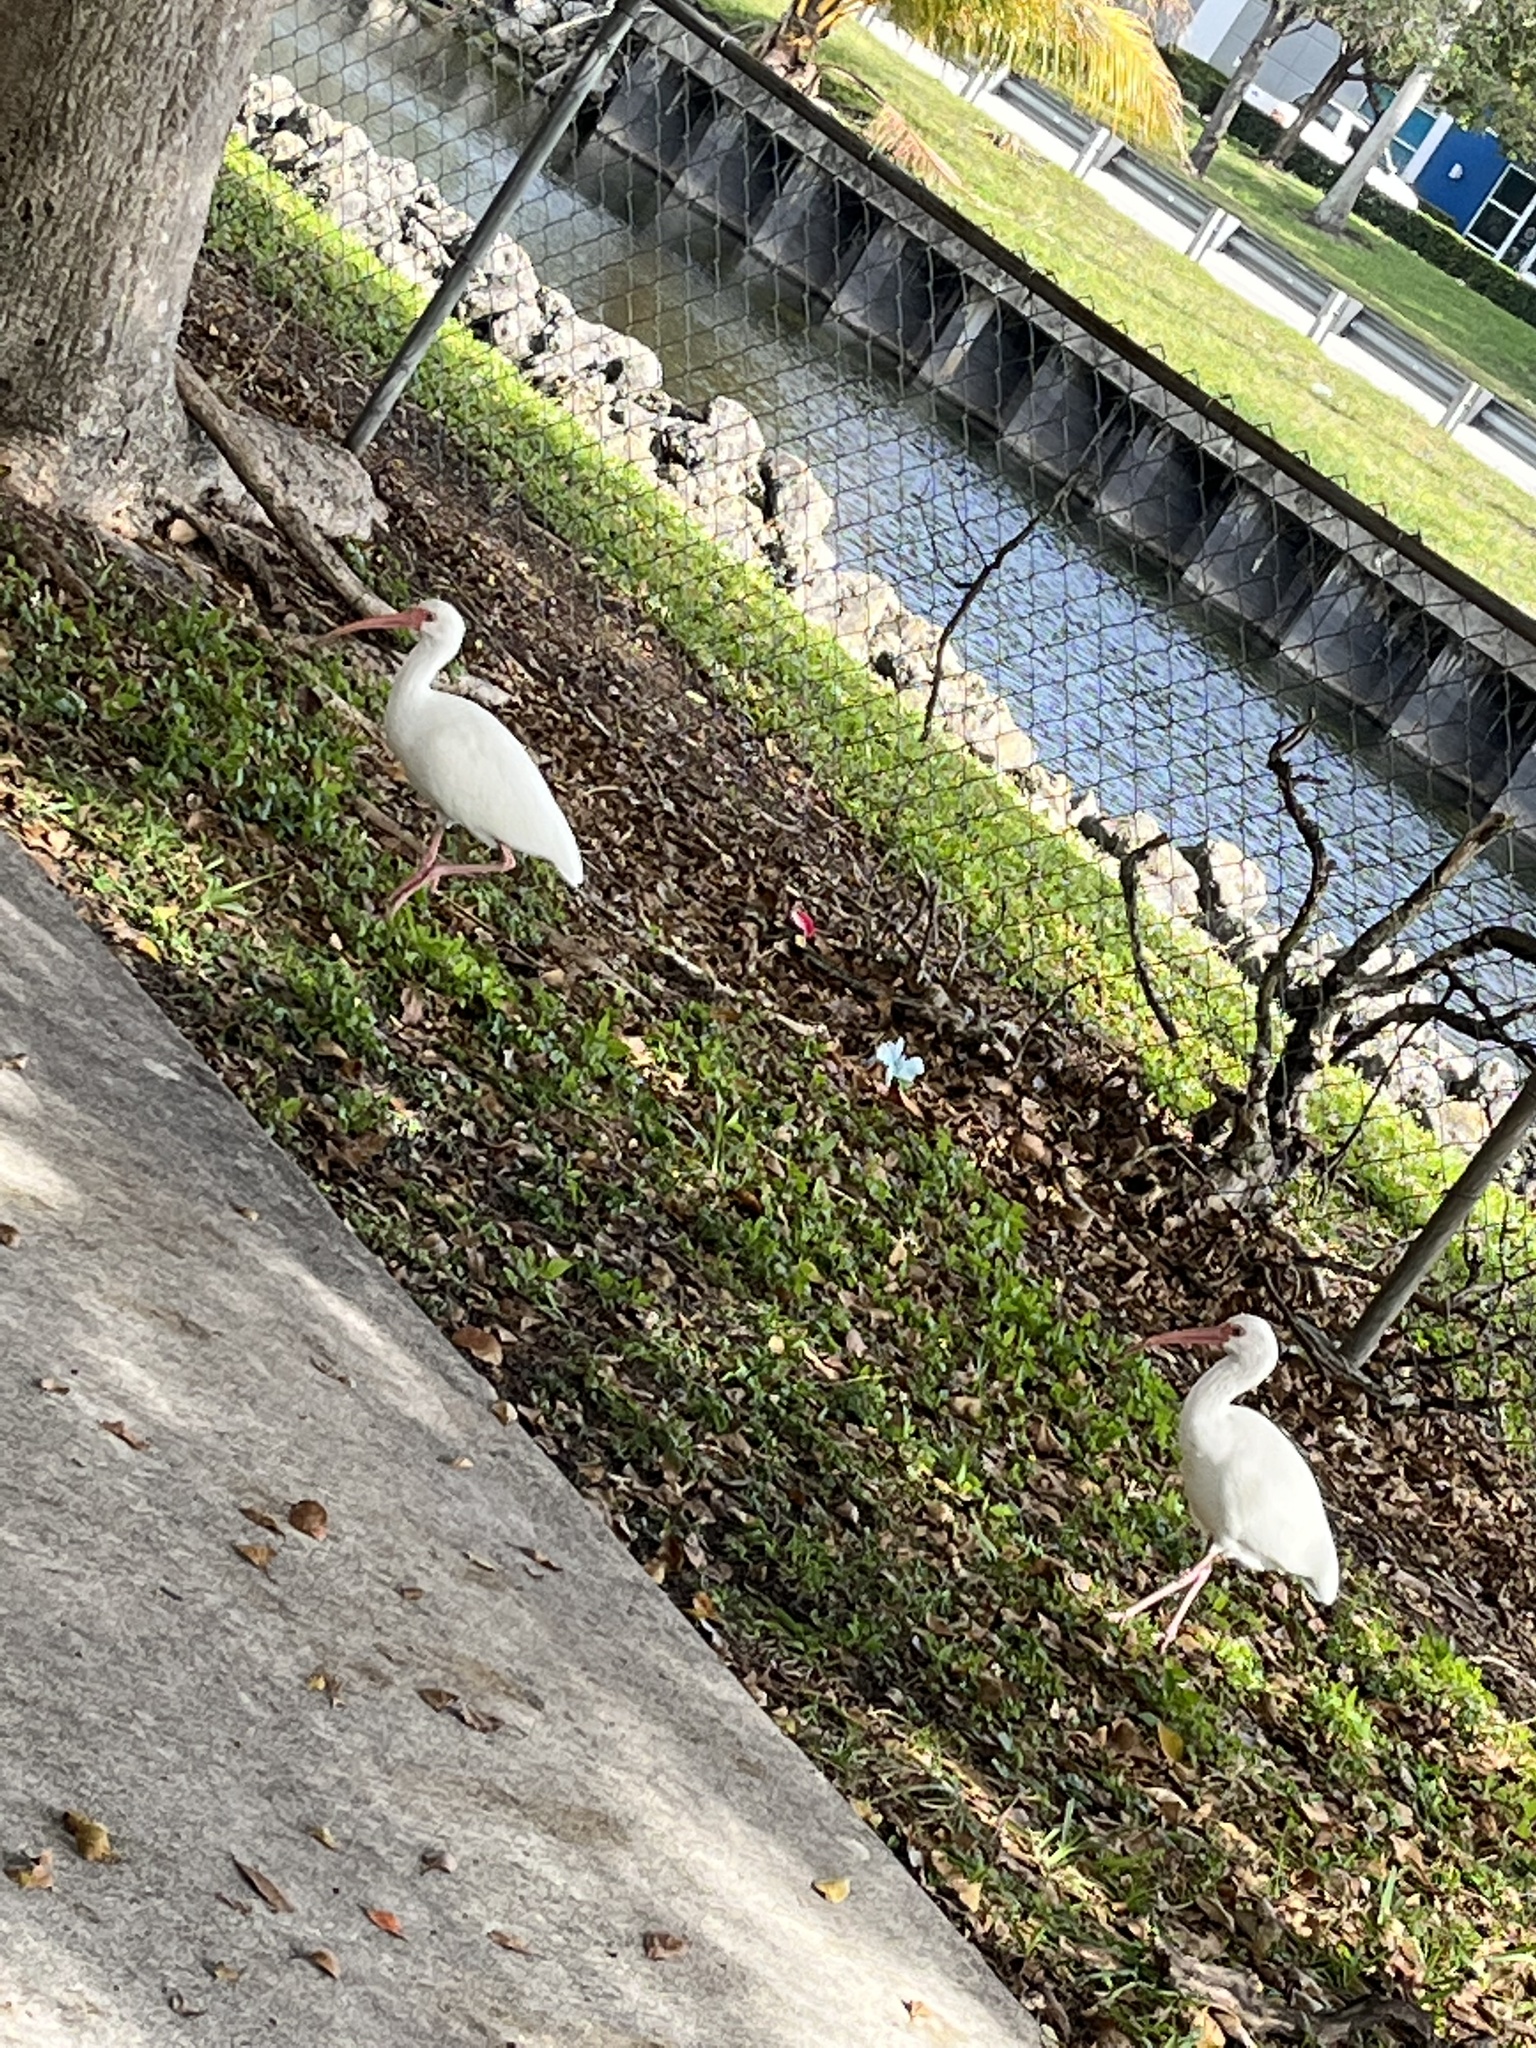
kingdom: Animalia
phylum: Chordata
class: Aves
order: Pelecaniformes
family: Threskiornithidae
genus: Eudocimus
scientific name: Eudocimus albus
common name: White ibis
